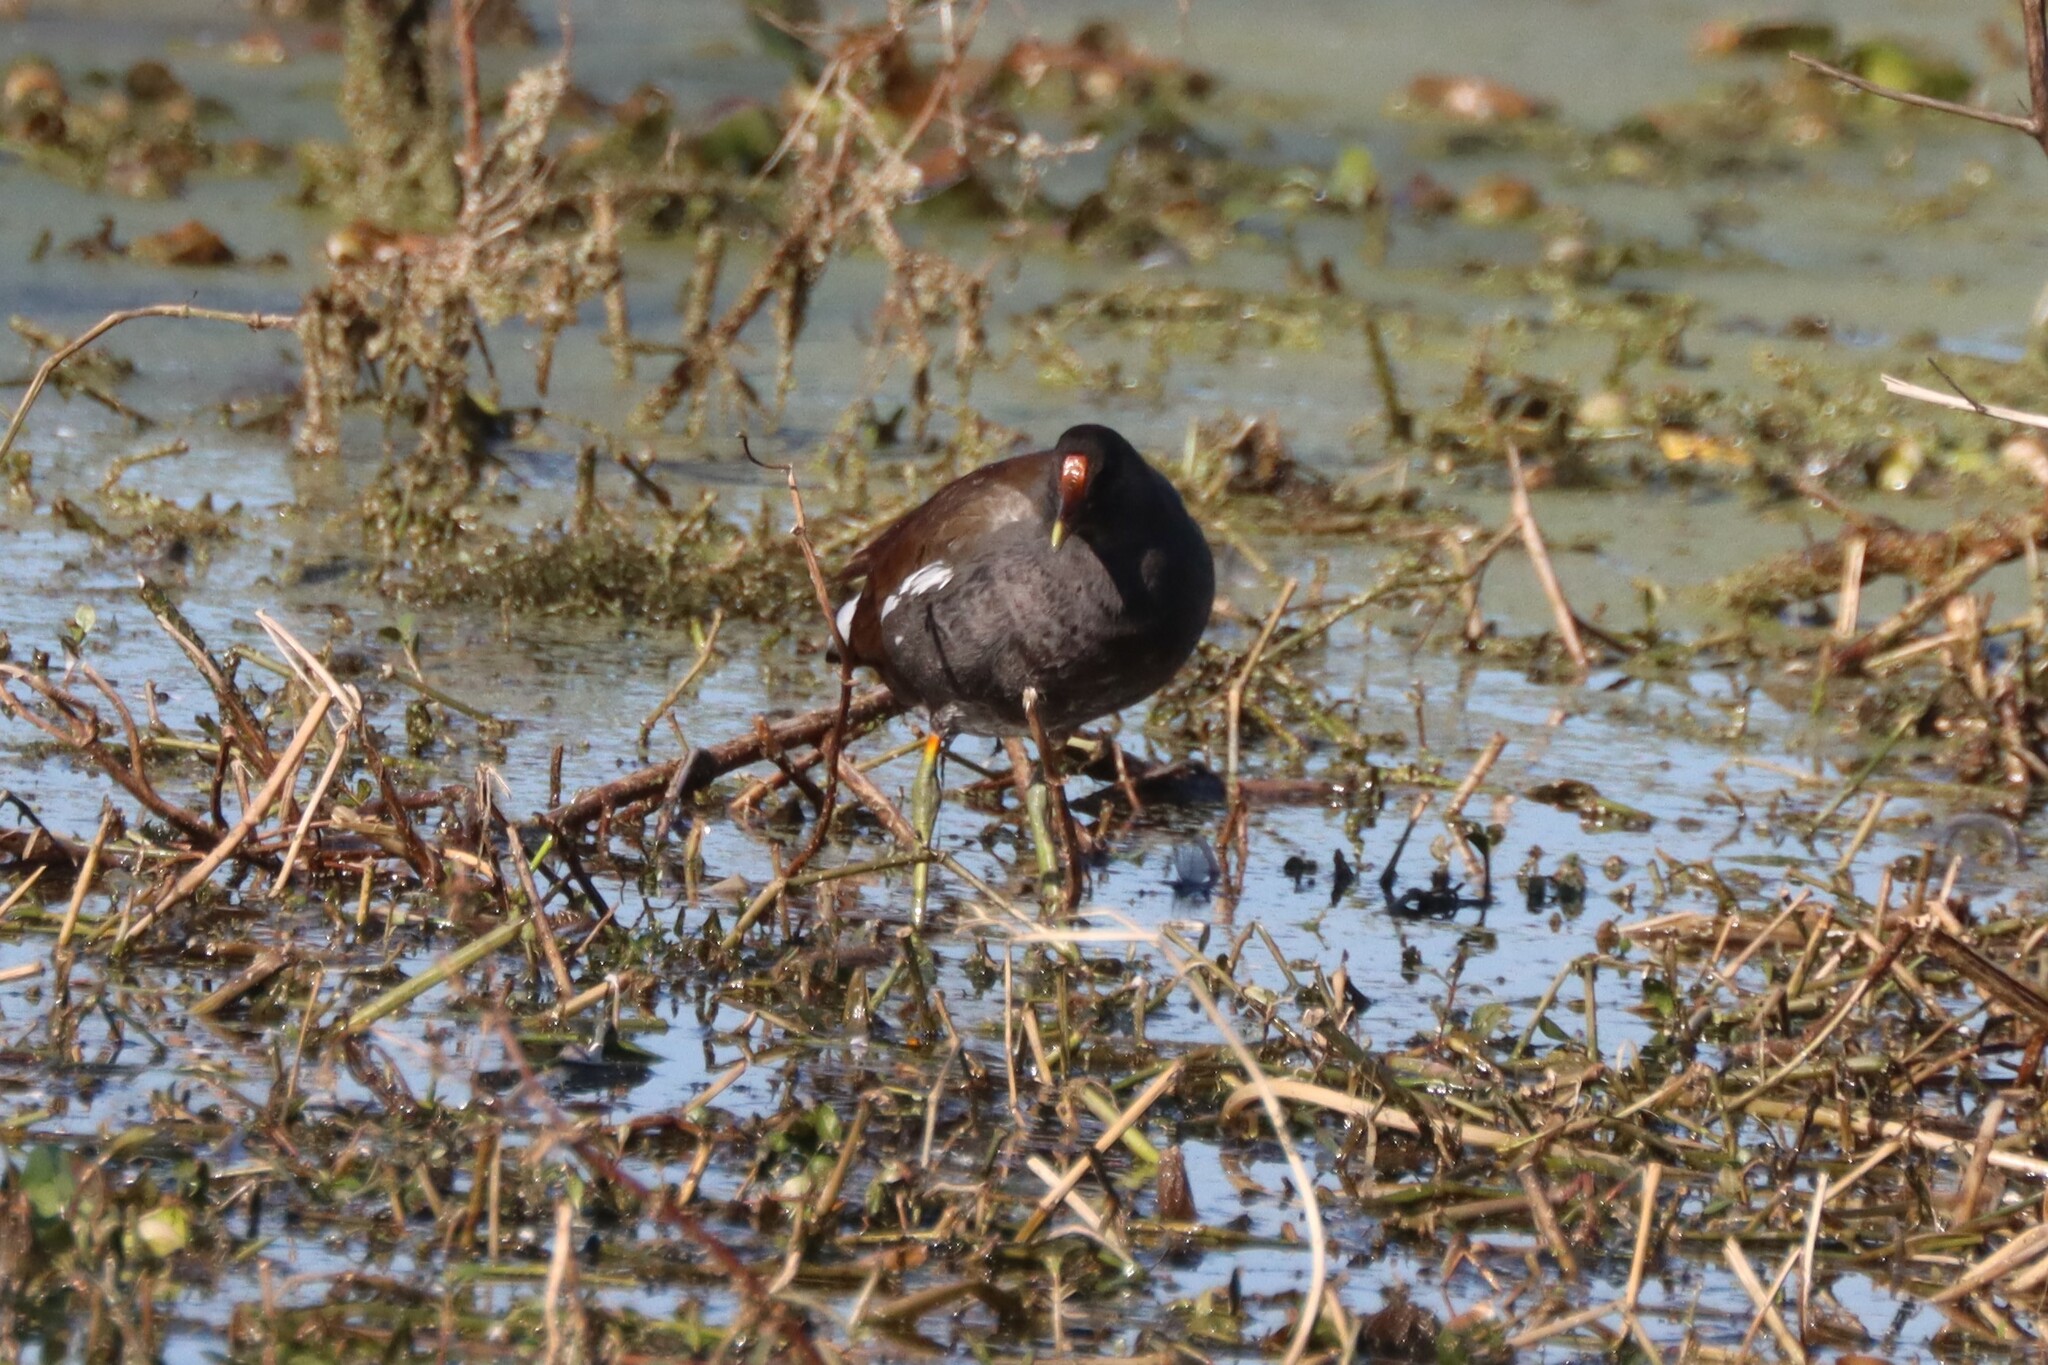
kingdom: Animalia
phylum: Chordata
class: Aves
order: Gruiformes
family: Rallidae
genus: Gallinula
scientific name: Gallinula chloropus
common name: Common moorhen
